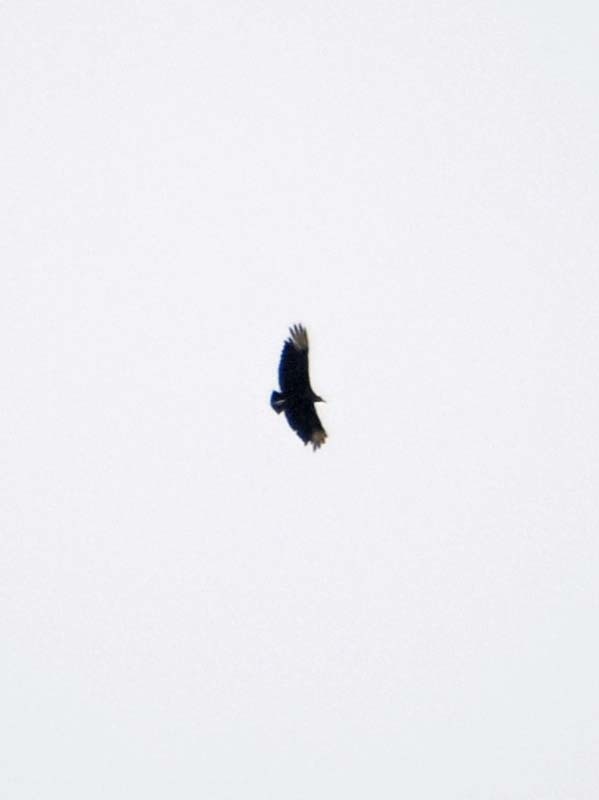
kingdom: Animalia
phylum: Chordata
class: Aves
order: Accipitriformes
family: Cathartidae
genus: Coragyps
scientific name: Coragyps atratus
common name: Black vulture
